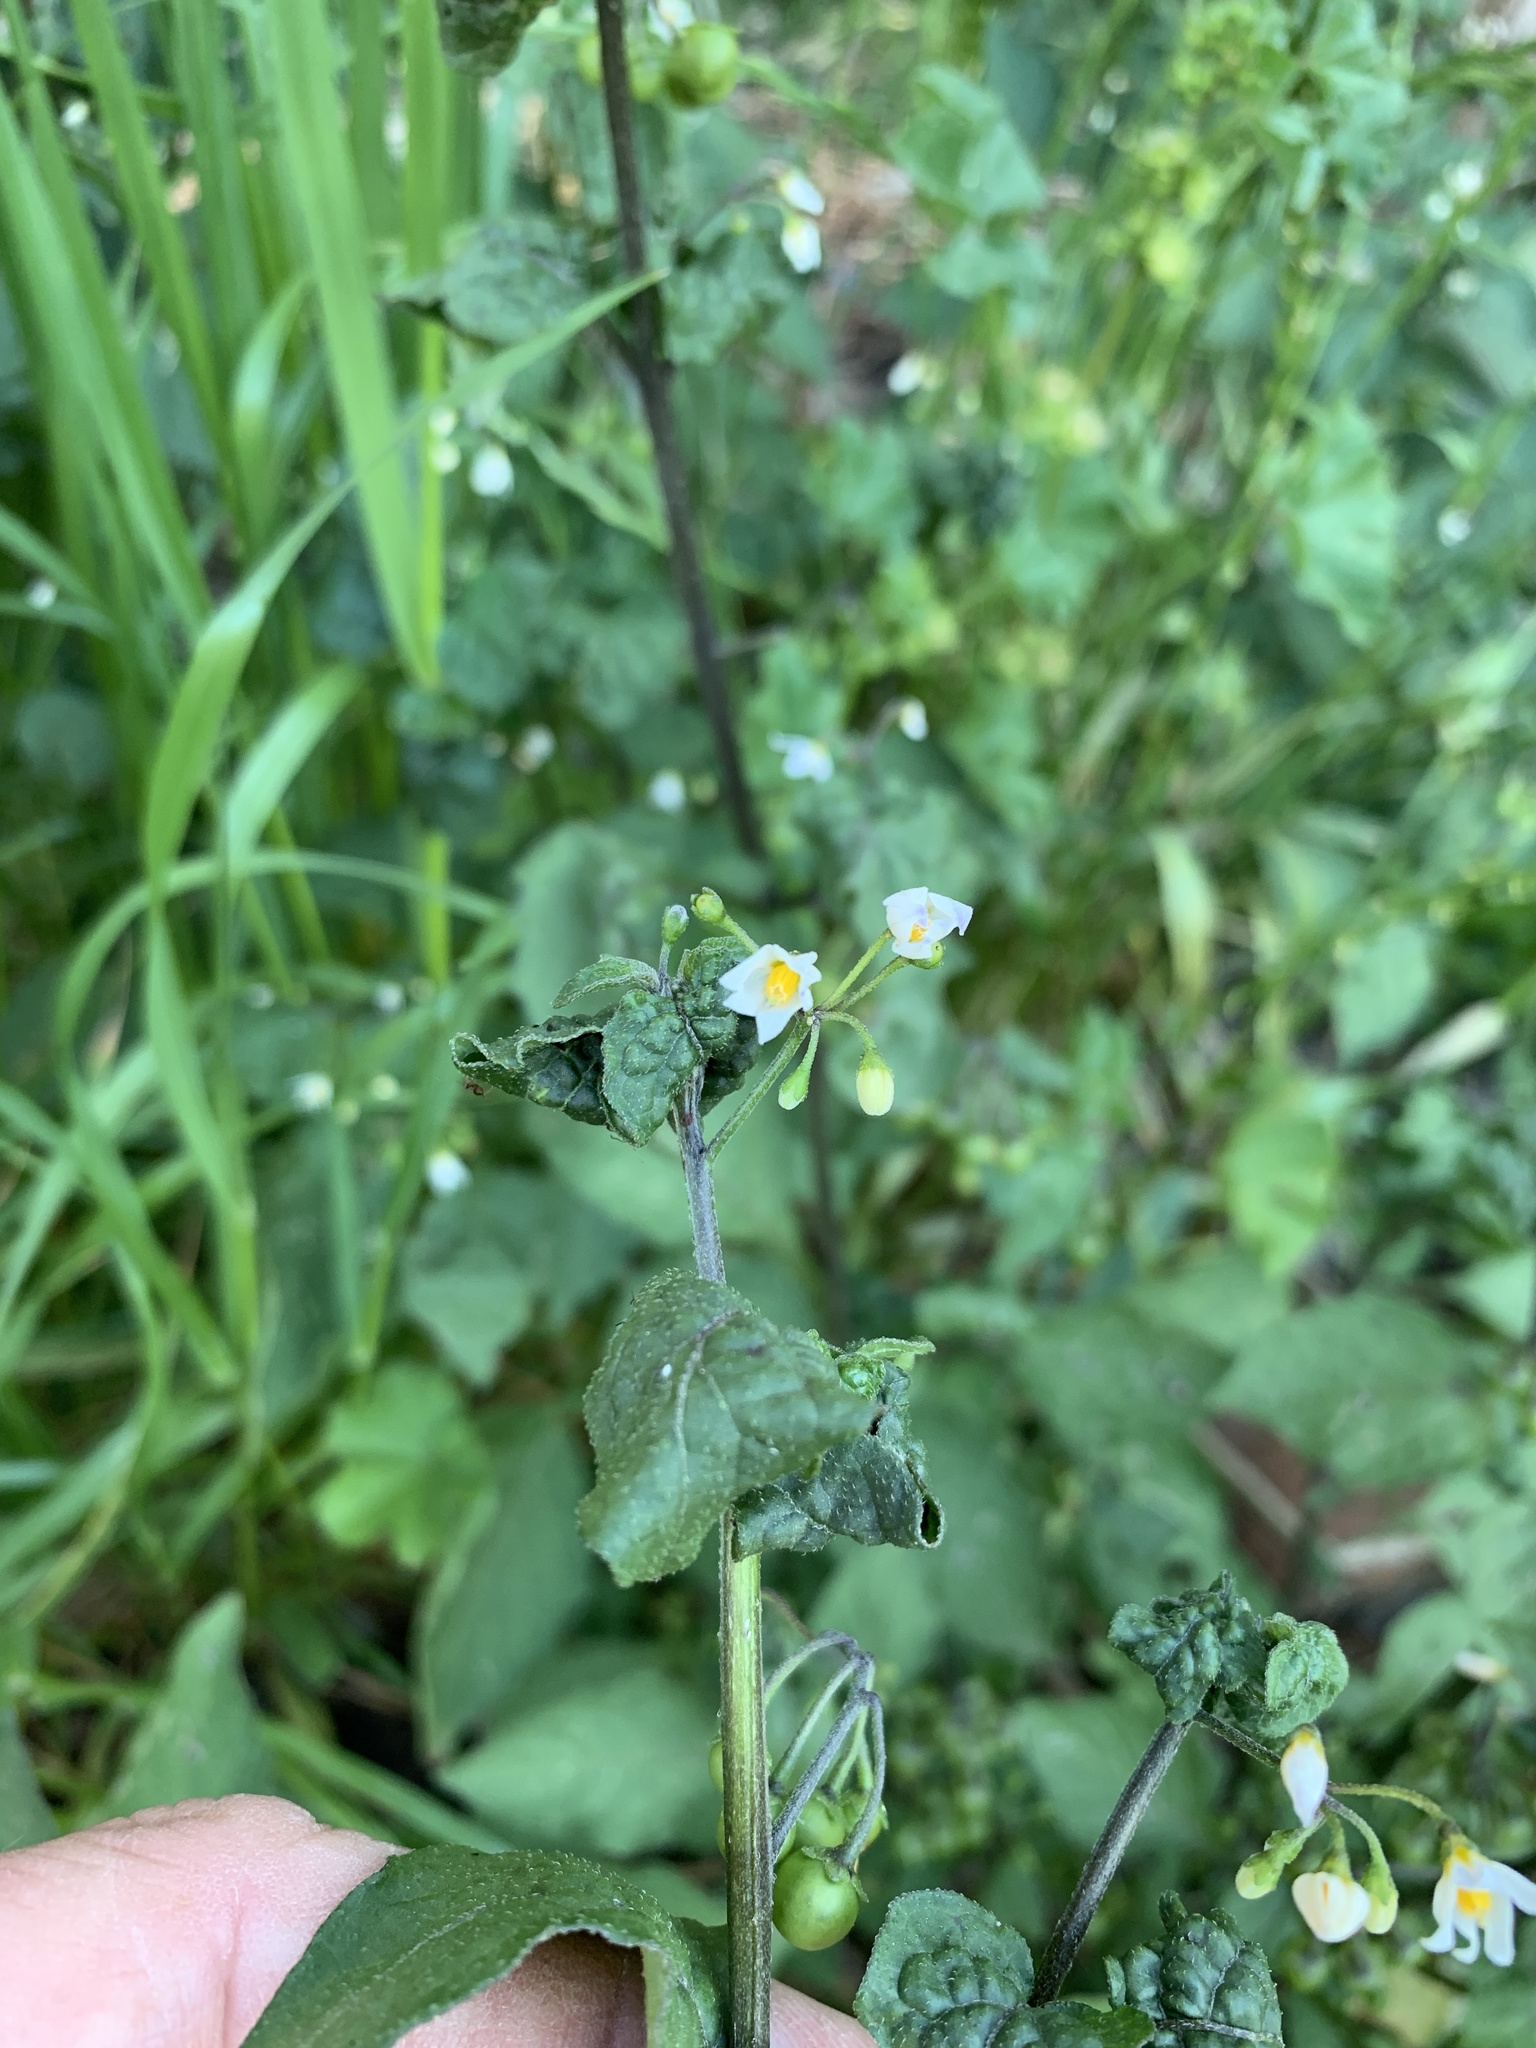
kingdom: Plantae
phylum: Tracheophyta
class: Magnoliopsida
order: Solanales
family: Solanaceae
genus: Solanum
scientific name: Solanum nigrum
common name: Black nightshade
